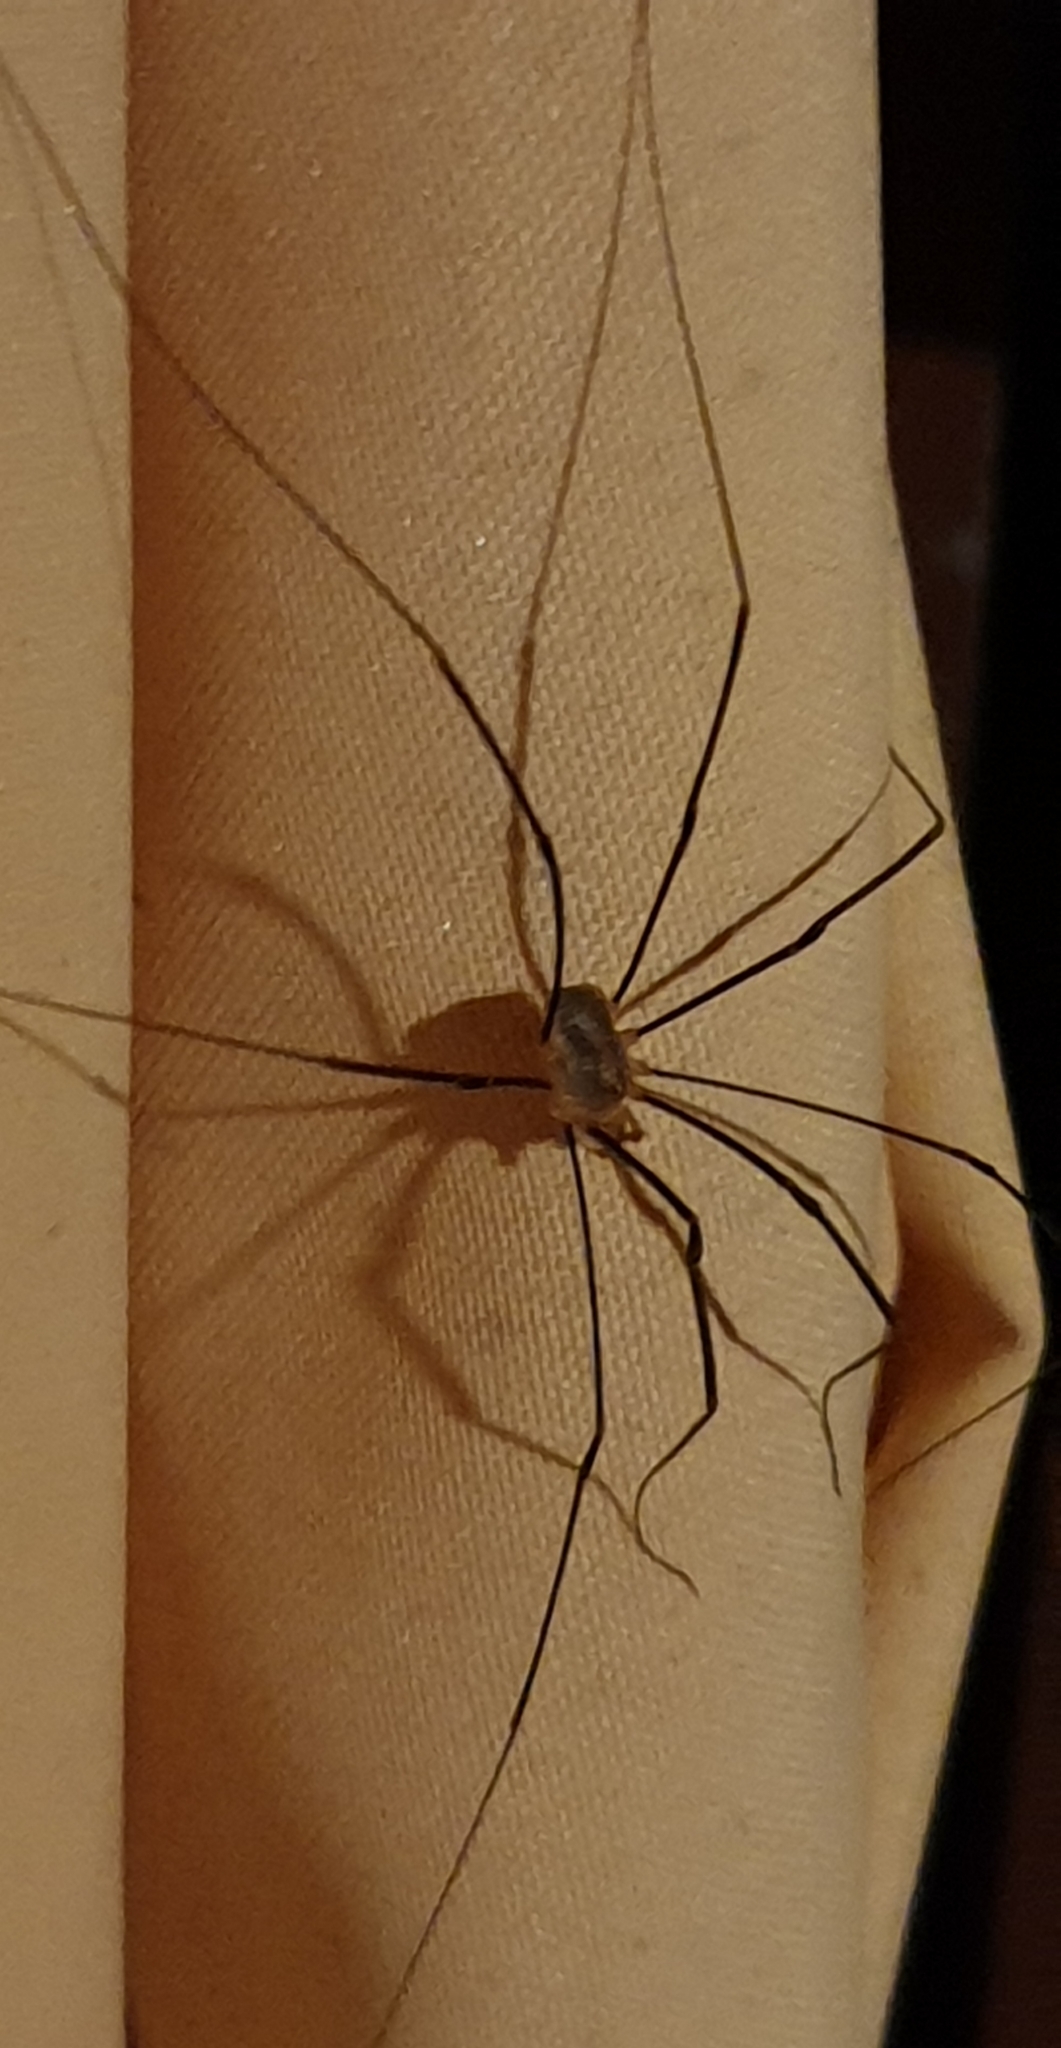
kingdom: Animalia
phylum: Arthropoda
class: Arachnida
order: Opiliones
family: Phalangiidae
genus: Opilio
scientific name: Opilio canestrinii
